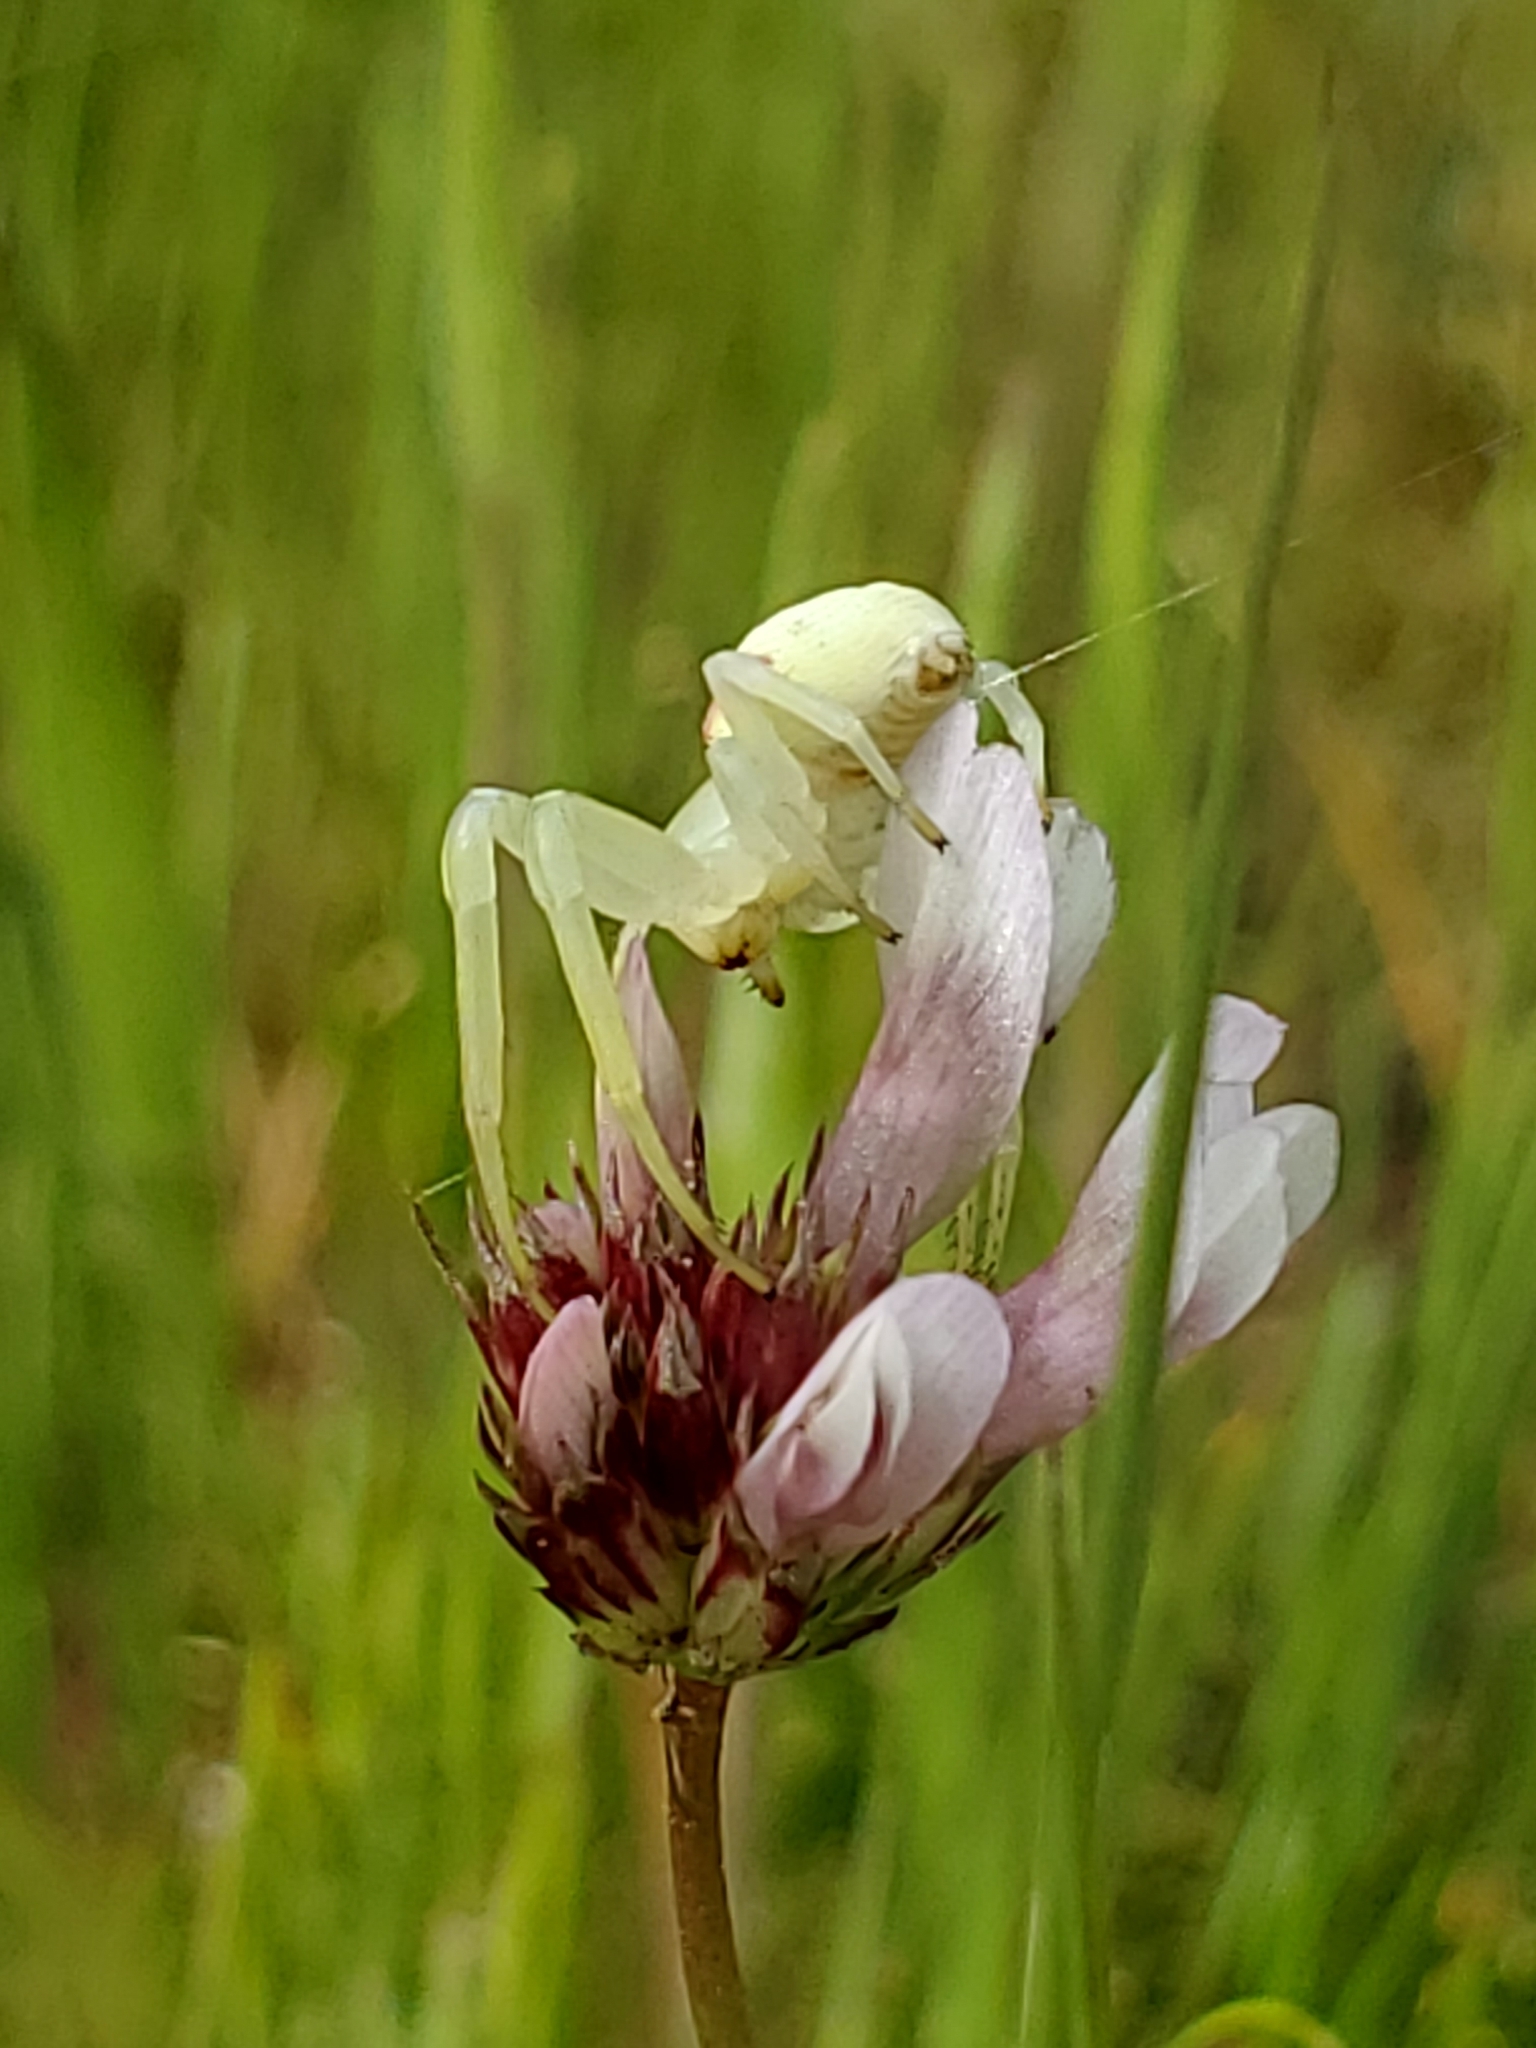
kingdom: Animalia
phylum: Arthropoda
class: Arachnida
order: Araneae
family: Thomisidae
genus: Misumena
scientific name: Misumena vatia
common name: Goldenrod crab spider
